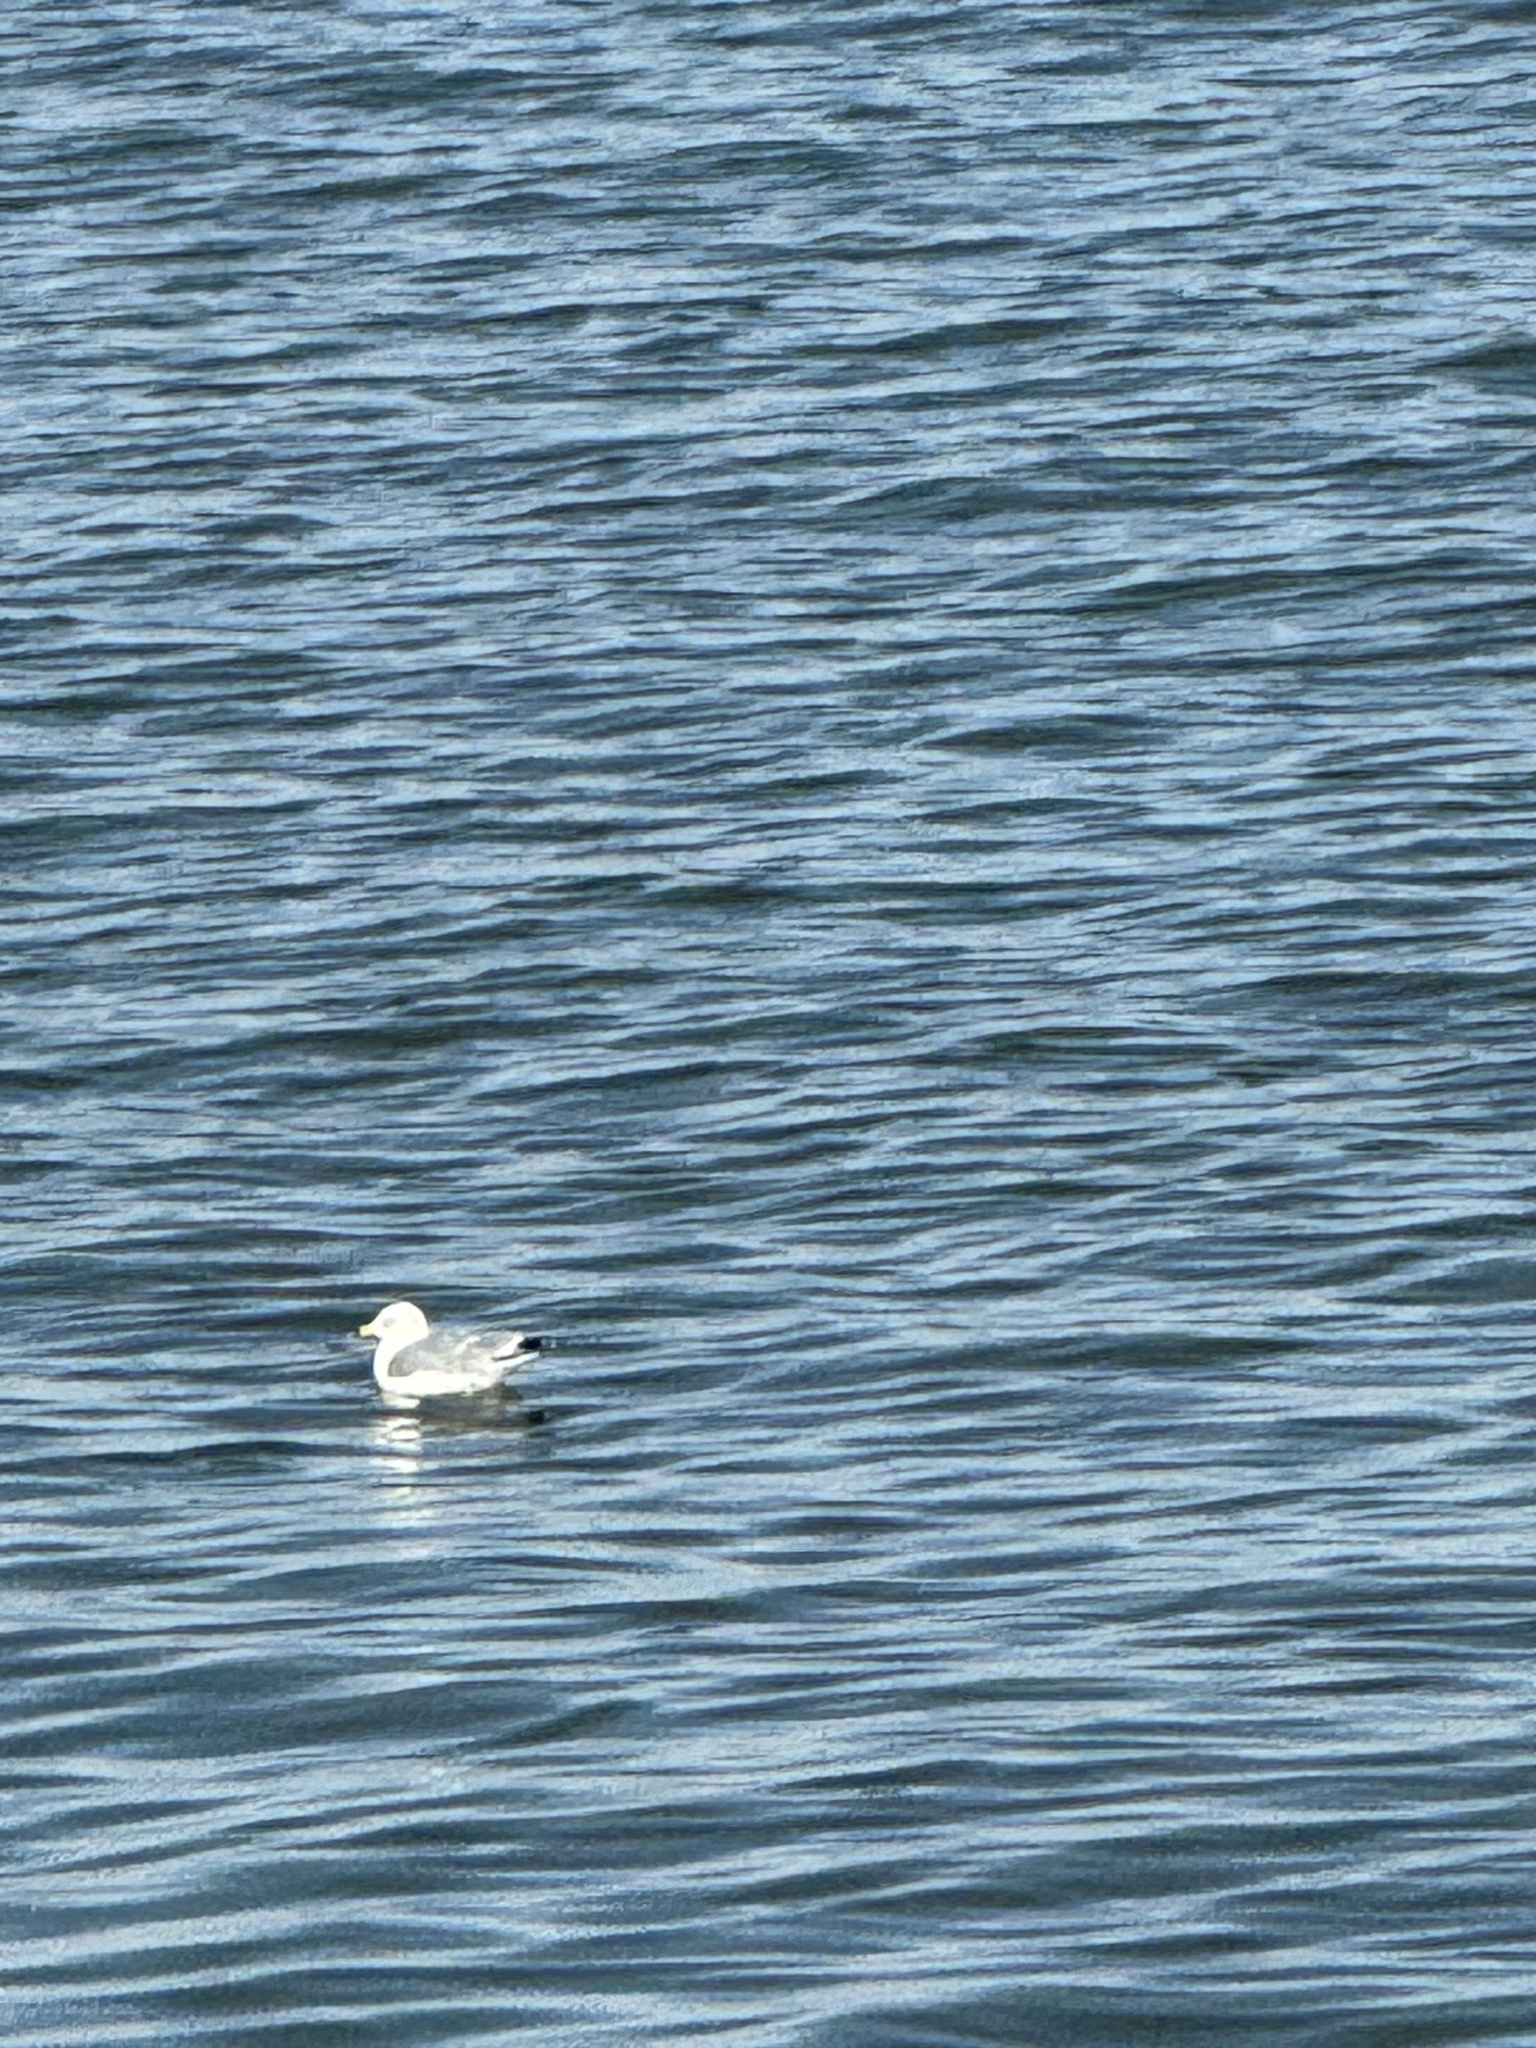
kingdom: Animalia
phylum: Chordata
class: Aves
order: Charadriiformes
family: Laridae
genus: Larus
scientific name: Larus delawarensis
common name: Ring-billed gull
